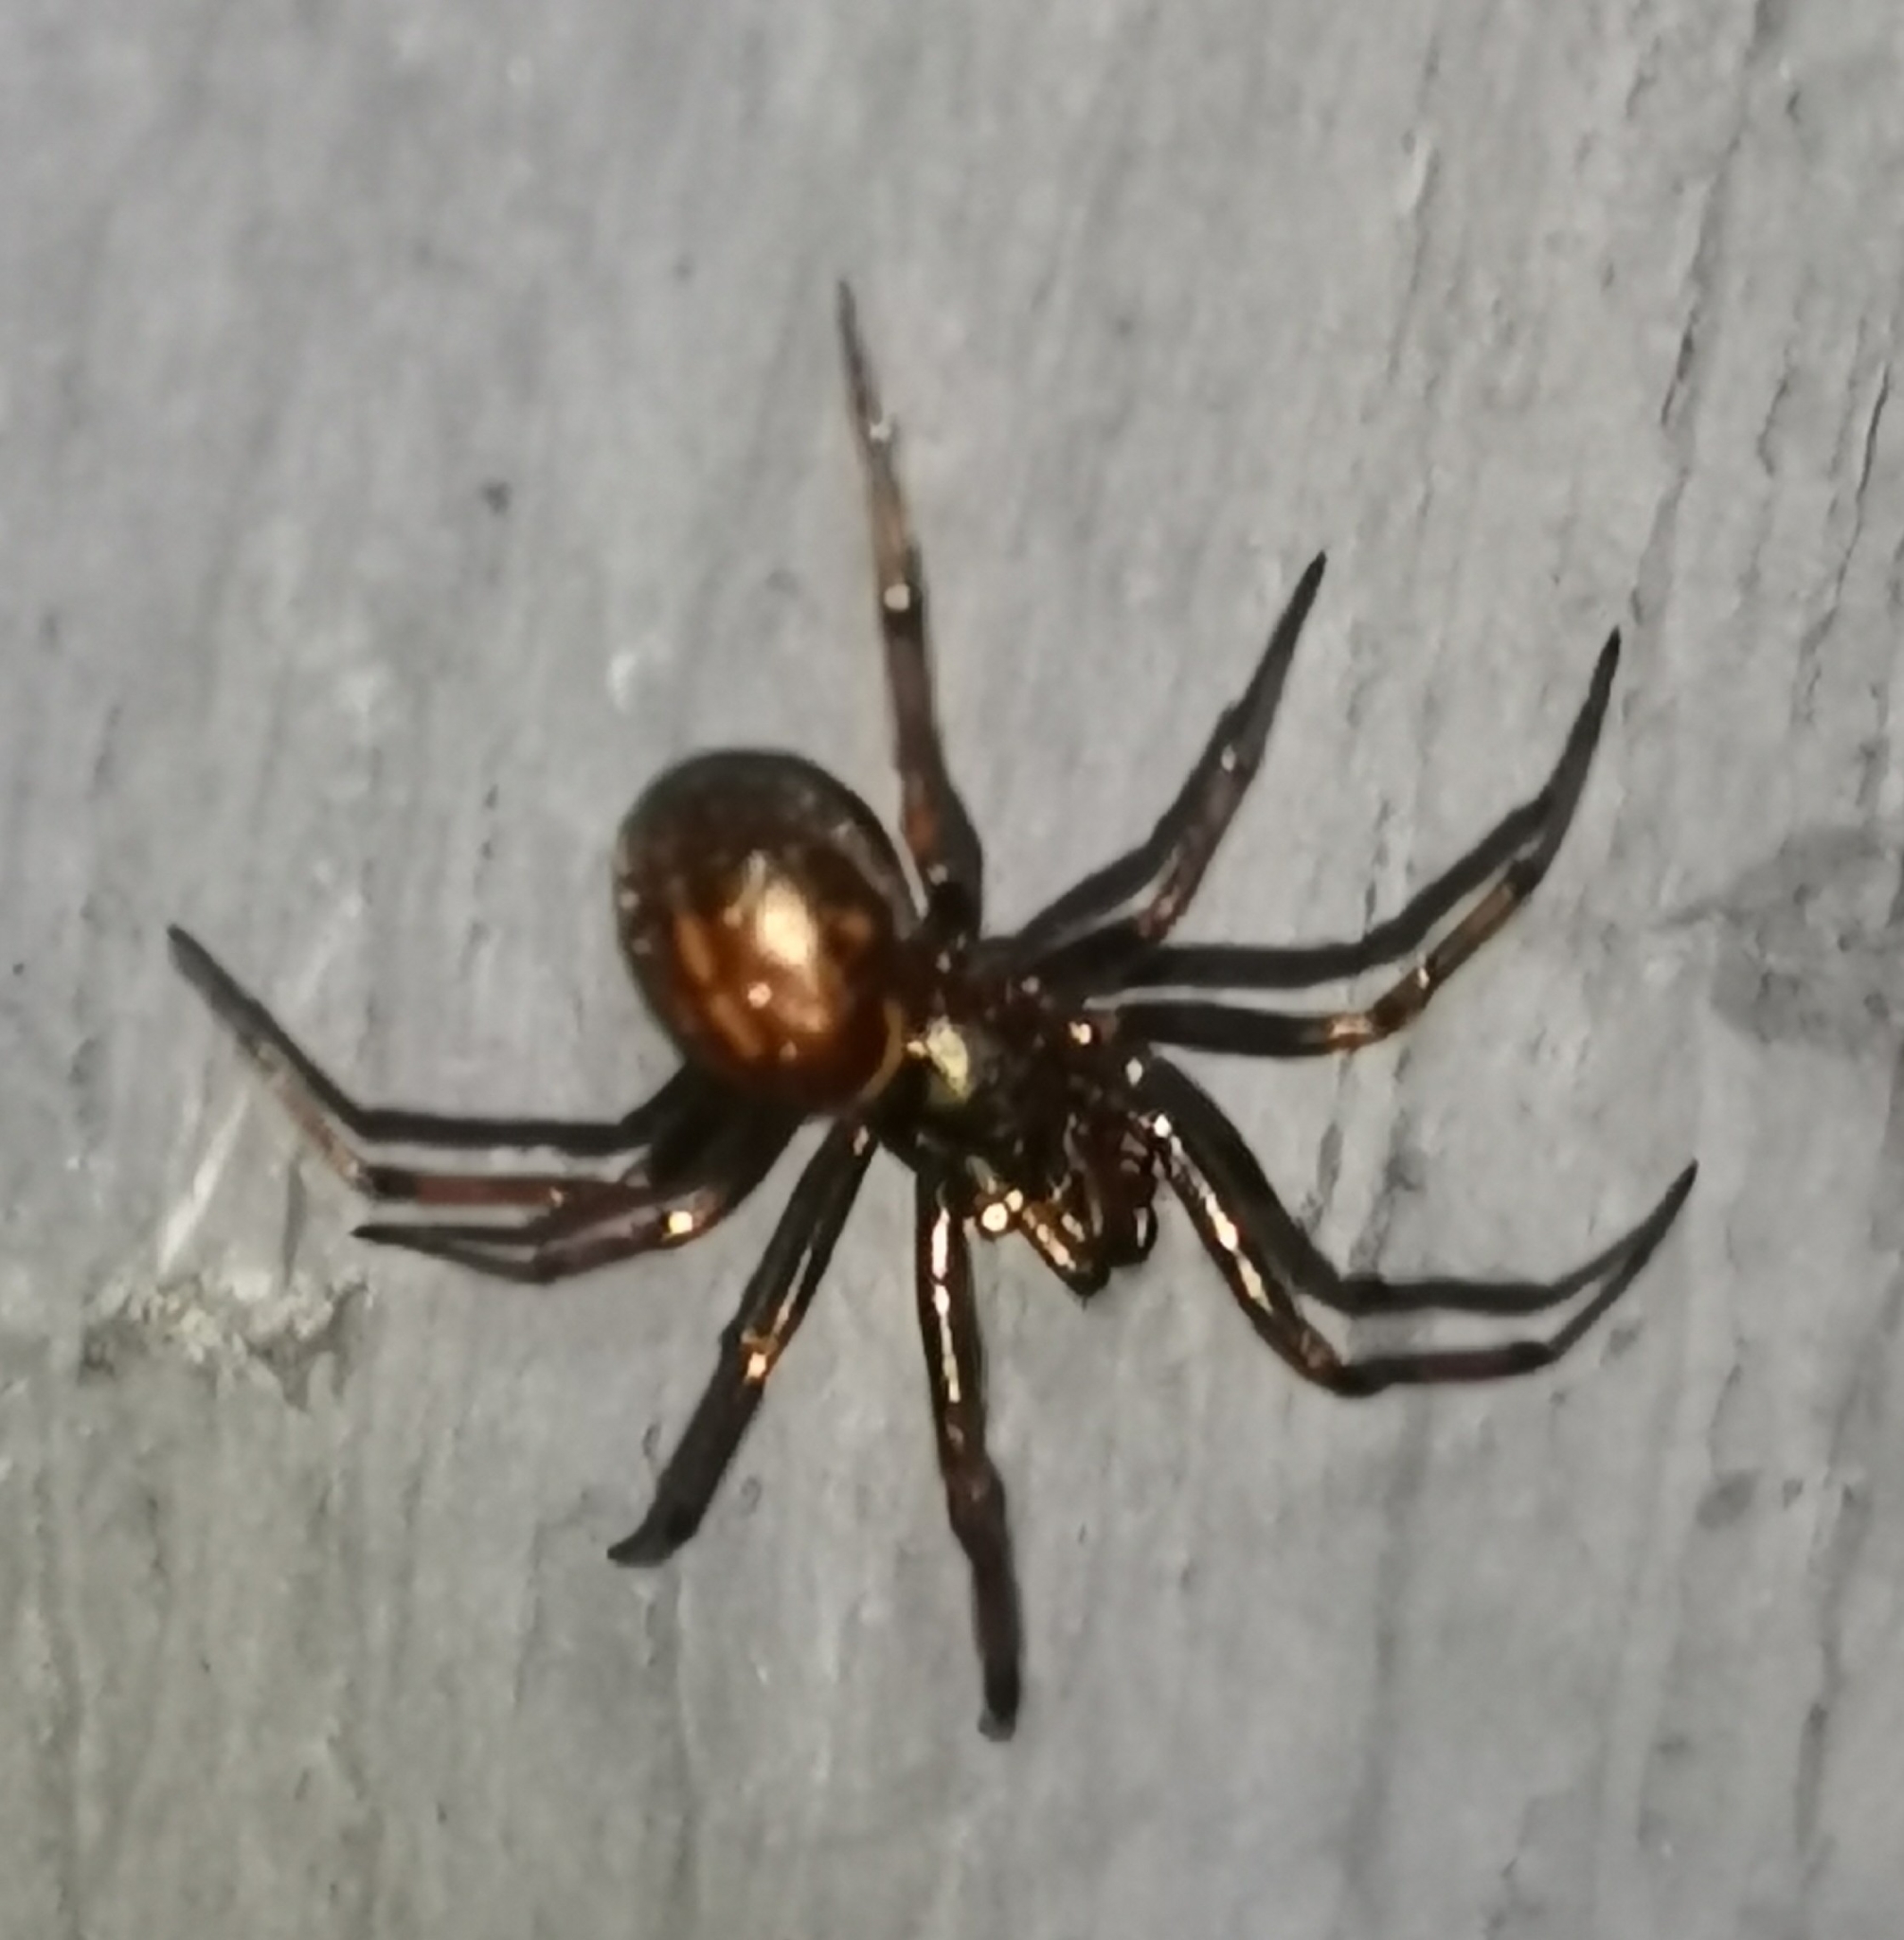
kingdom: Animalia
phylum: Arthropoda
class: Arachnida
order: Araneae
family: Theridiidae
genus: Steatoda
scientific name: Steatoda bipunctata
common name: False widow
